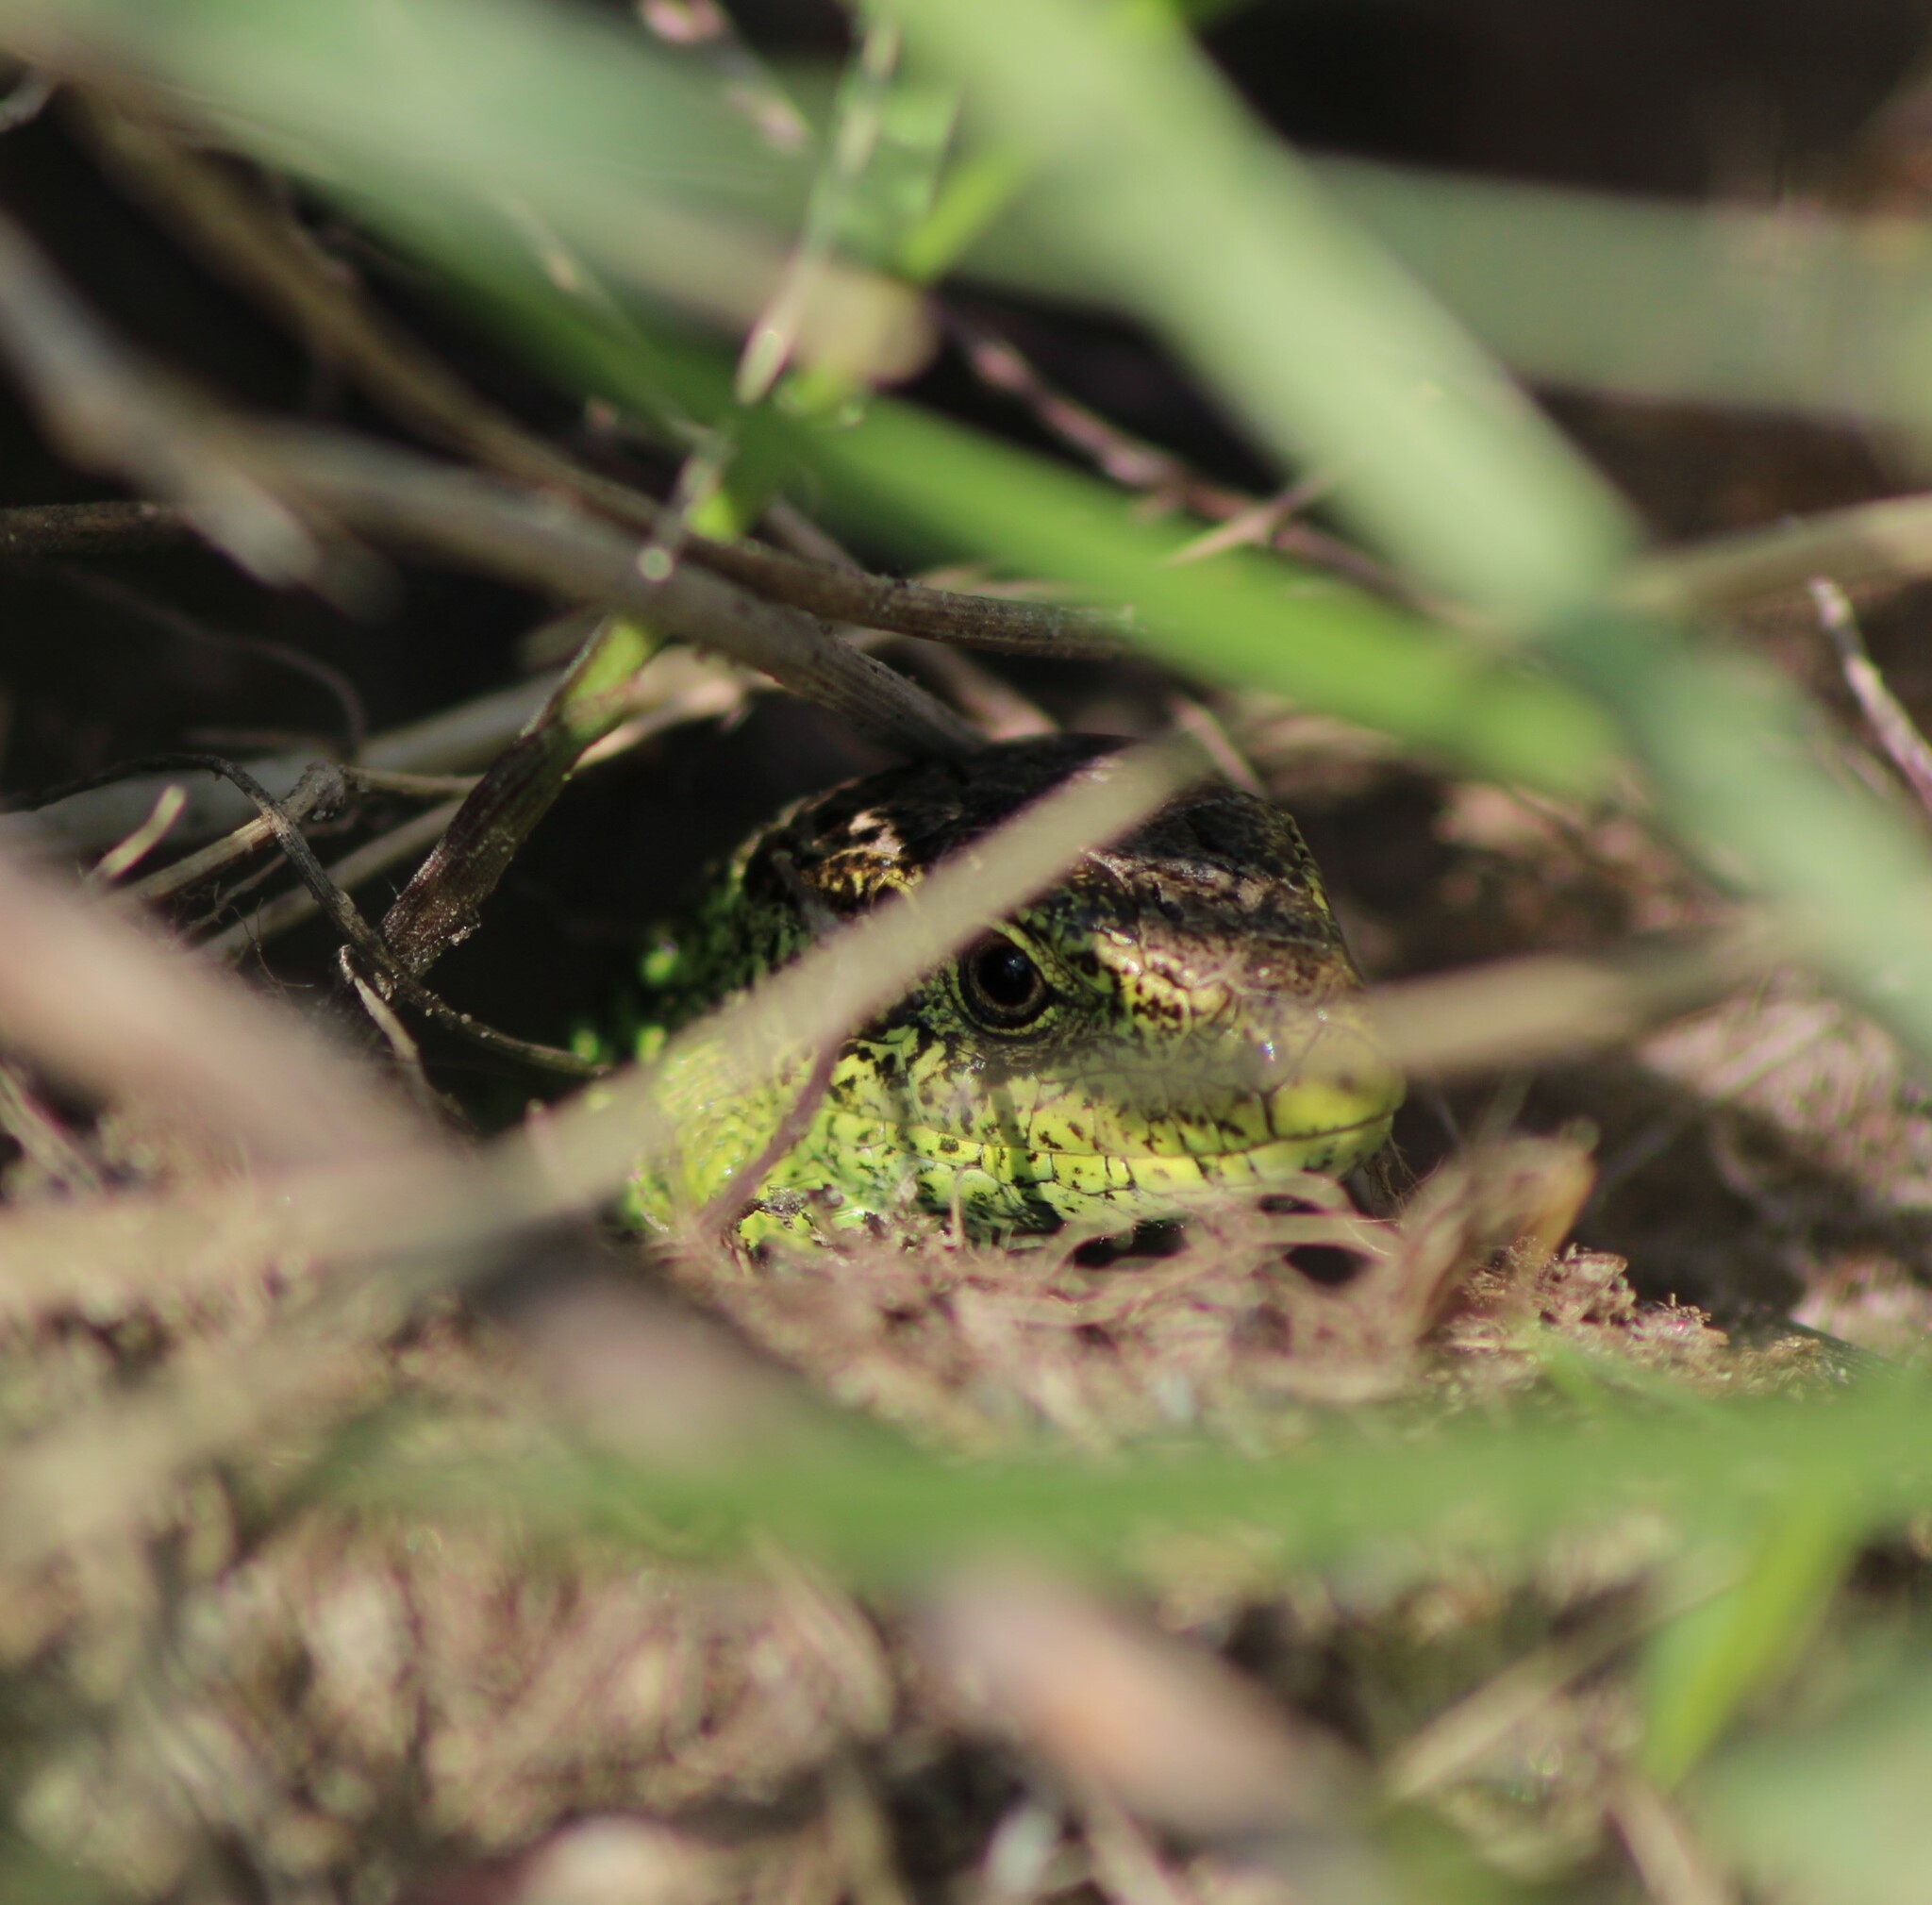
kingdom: Animalia
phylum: Chordata
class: Squamata
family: Lacertidae
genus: Lacerta
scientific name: Lacerta agilis
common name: Sand lizard
